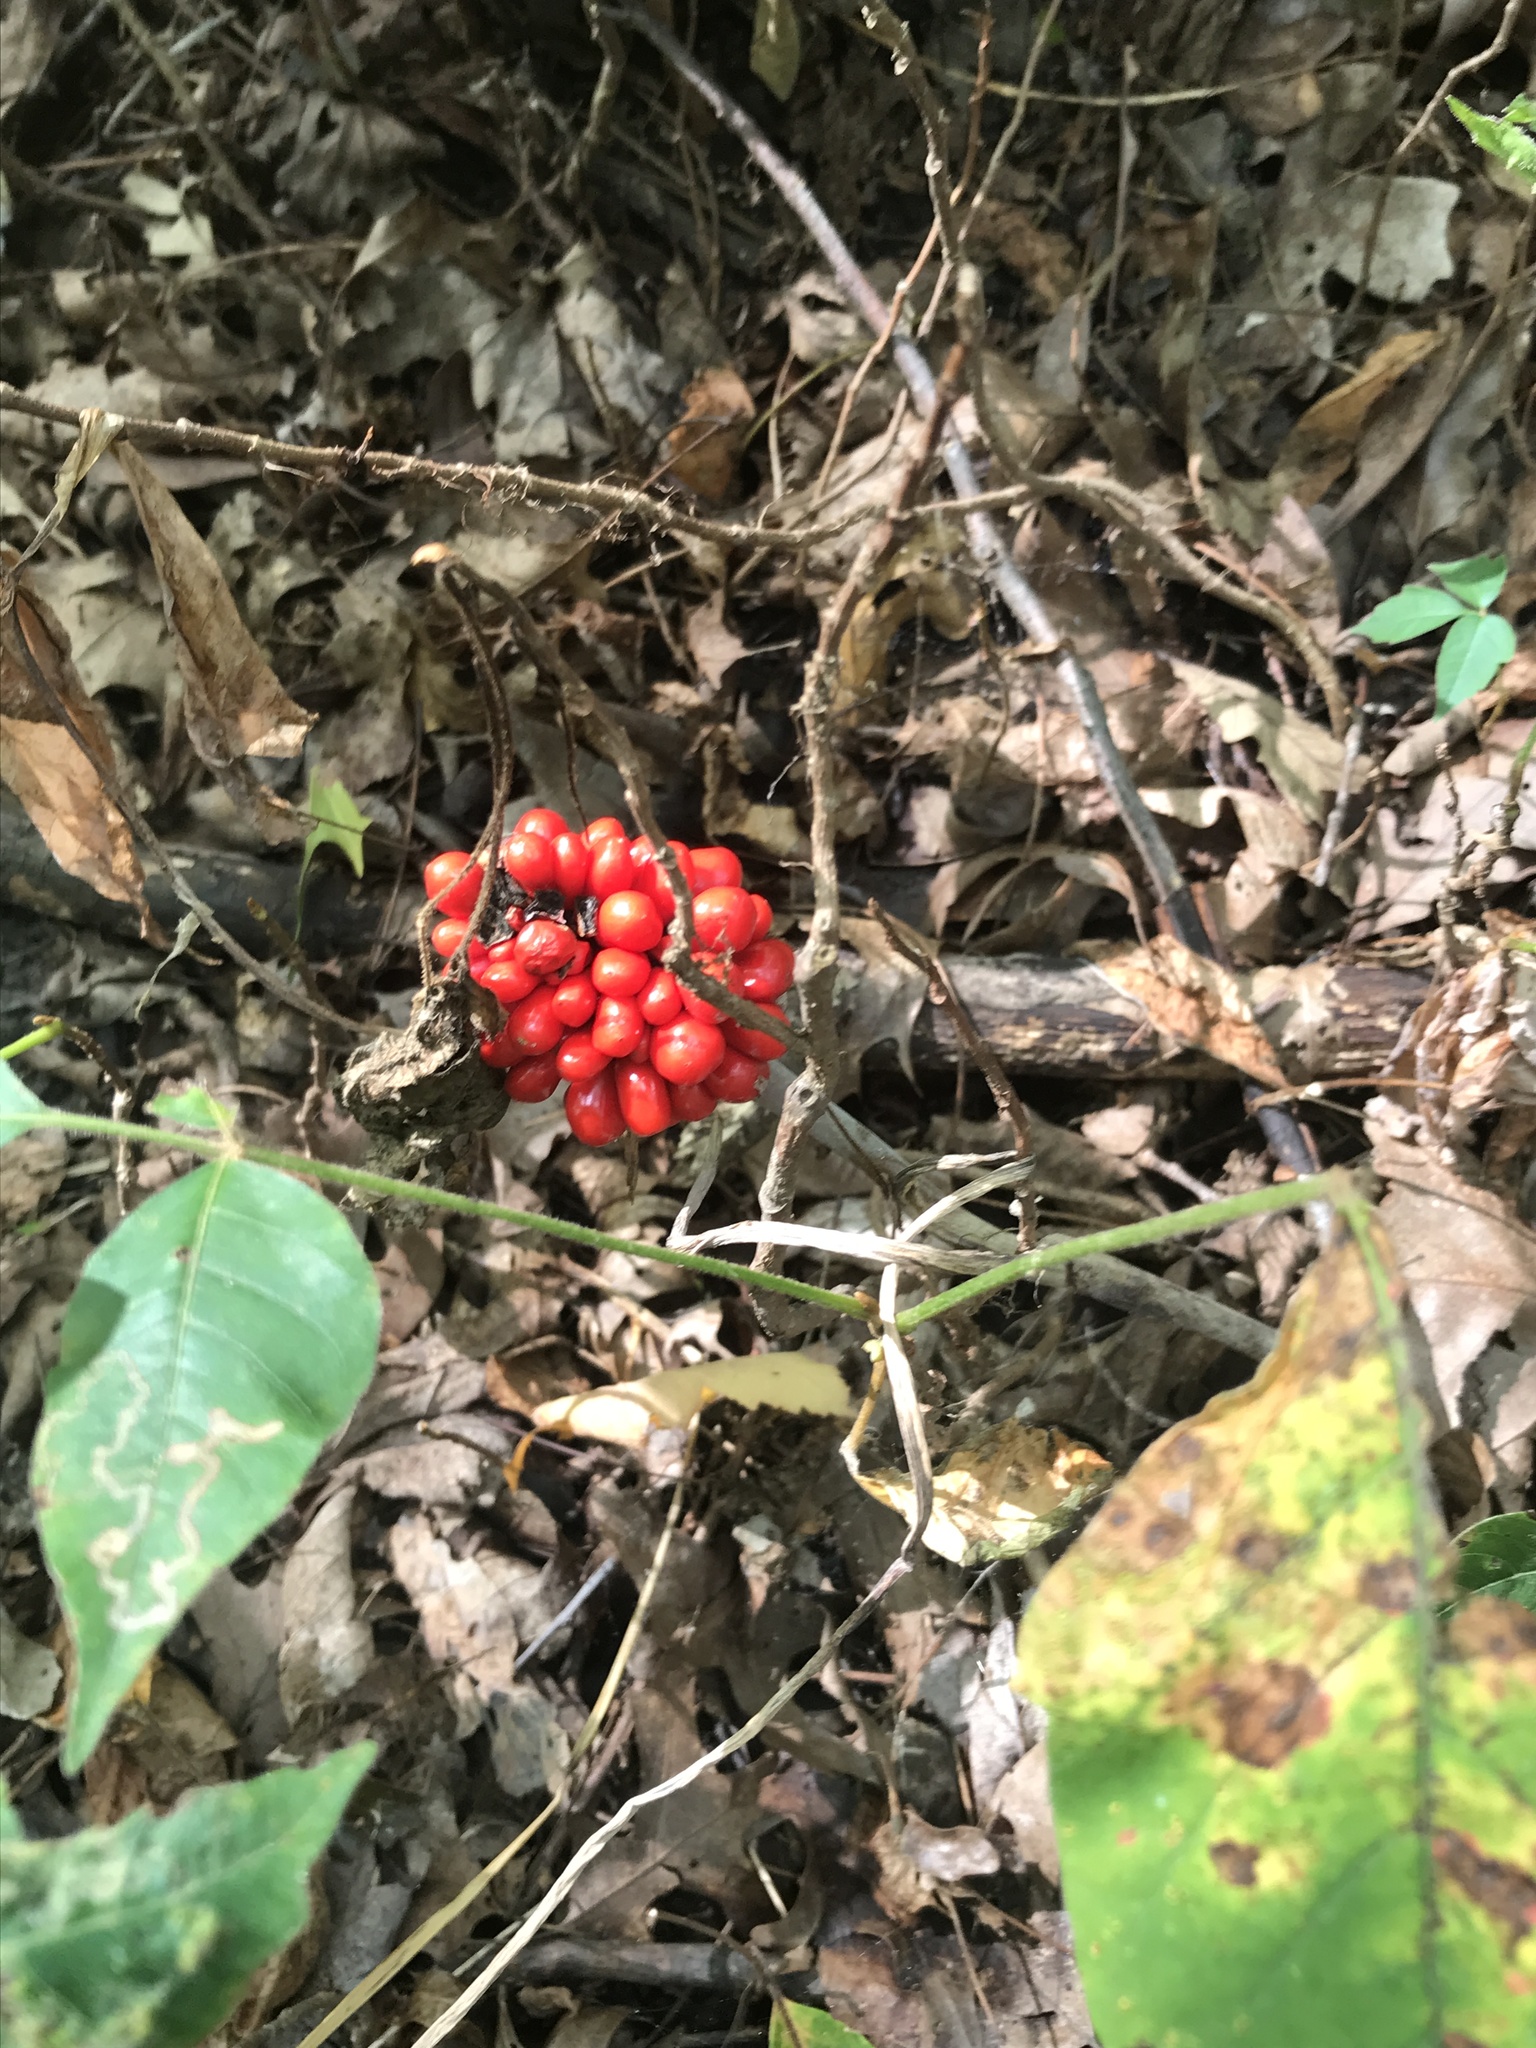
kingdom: Plantae
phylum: Tracheophyta
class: Liliopsida
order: Alismatales
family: Araceae
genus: Arisaema
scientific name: Arisaema triphyllum
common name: Jack-in-the-pulpit
